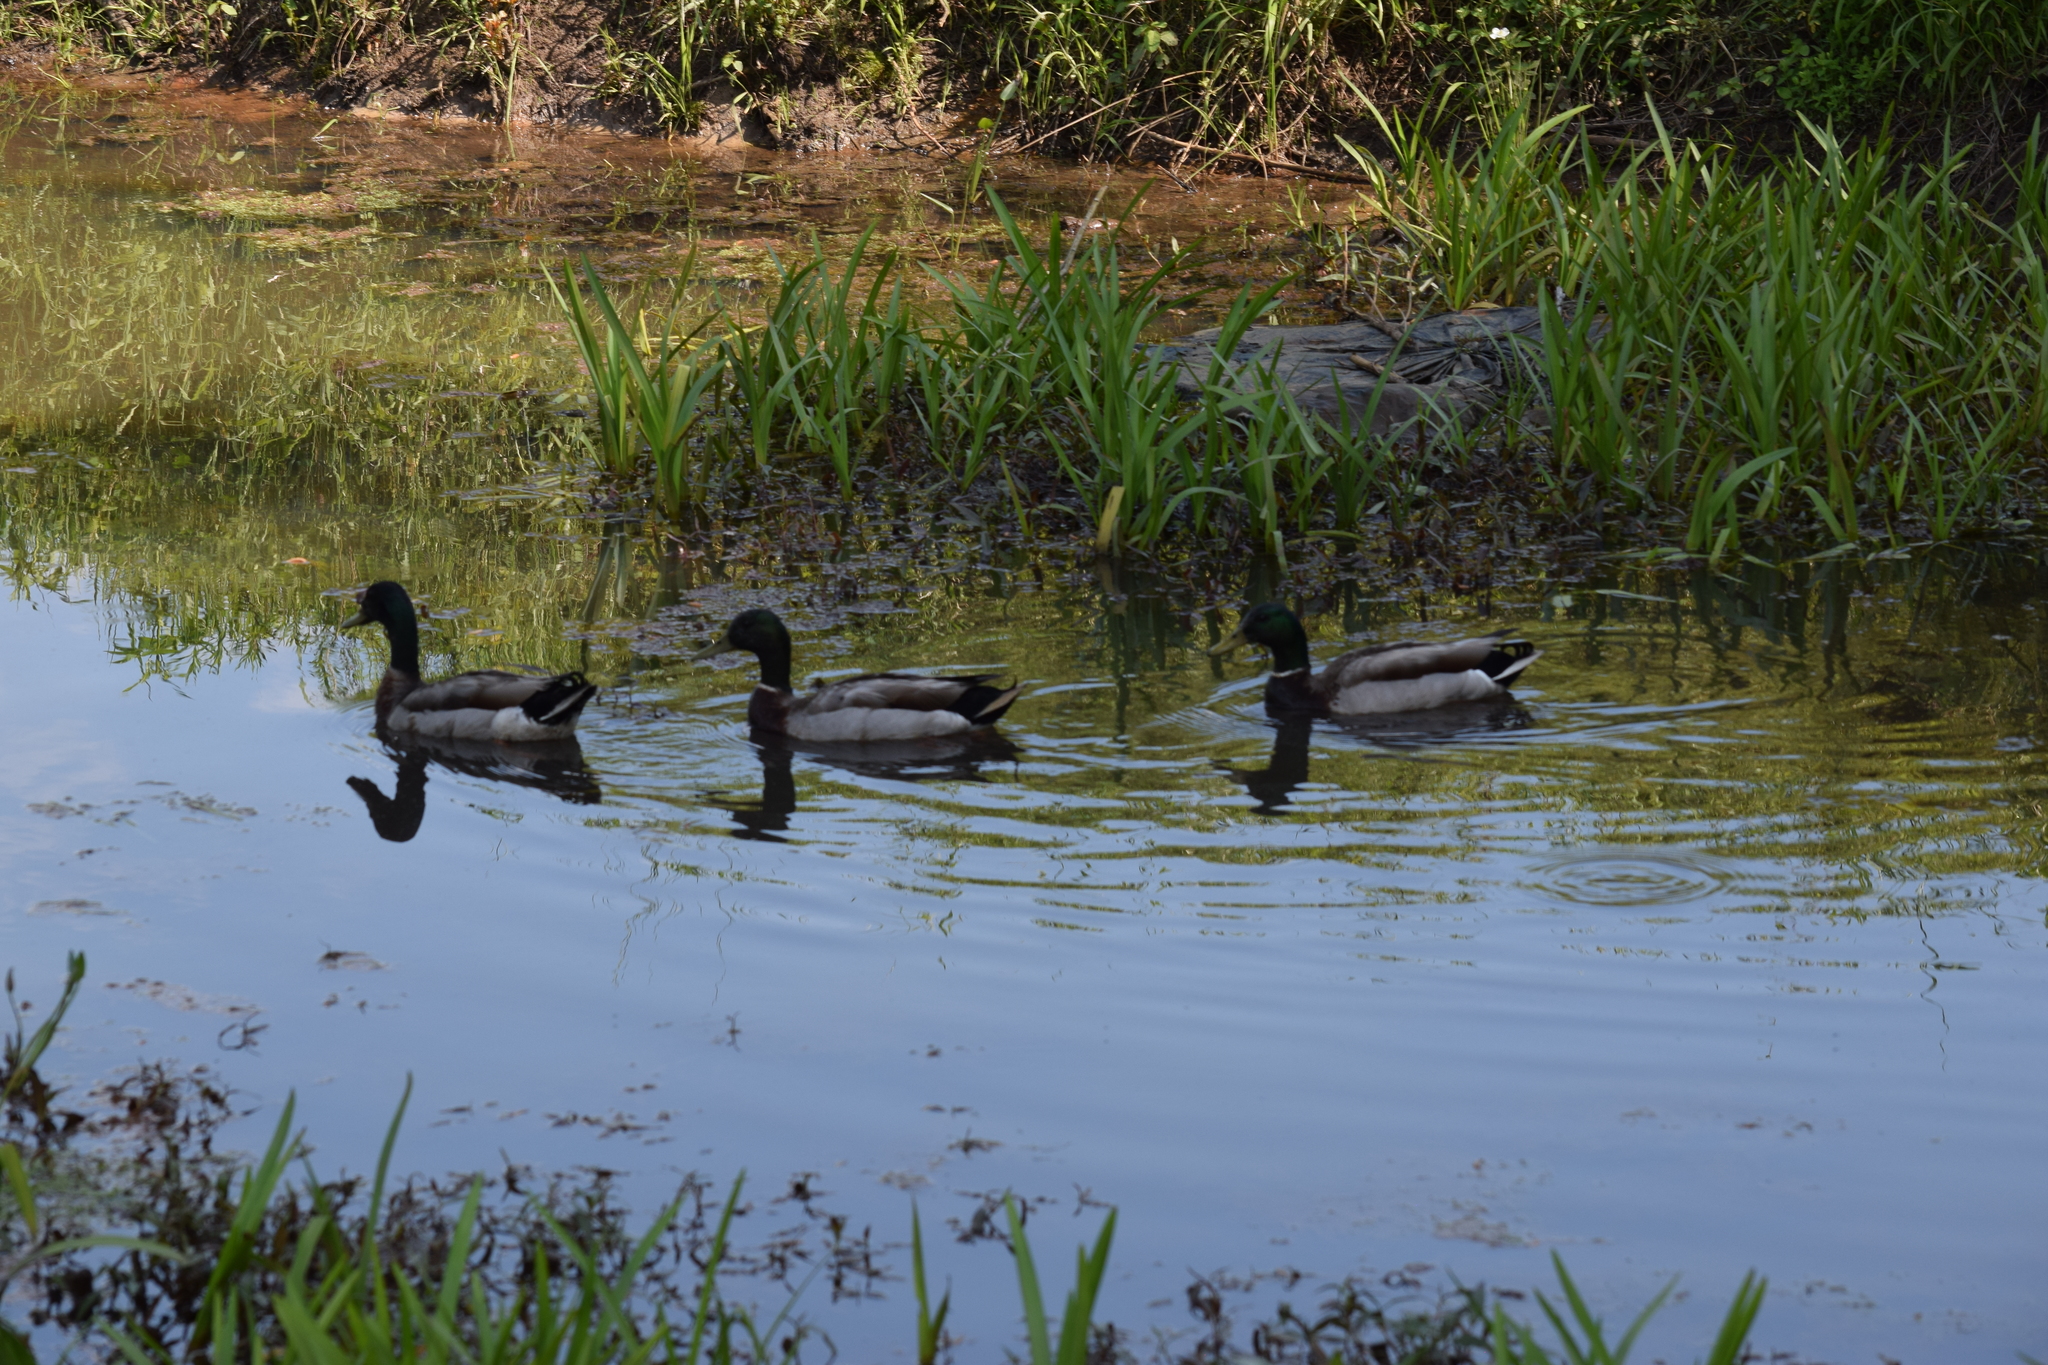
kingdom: Animalia
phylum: Chordata
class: Aves
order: Anseriformes
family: Anatidae
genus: Anas
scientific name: Anas platyrhynchos
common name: Mallard
